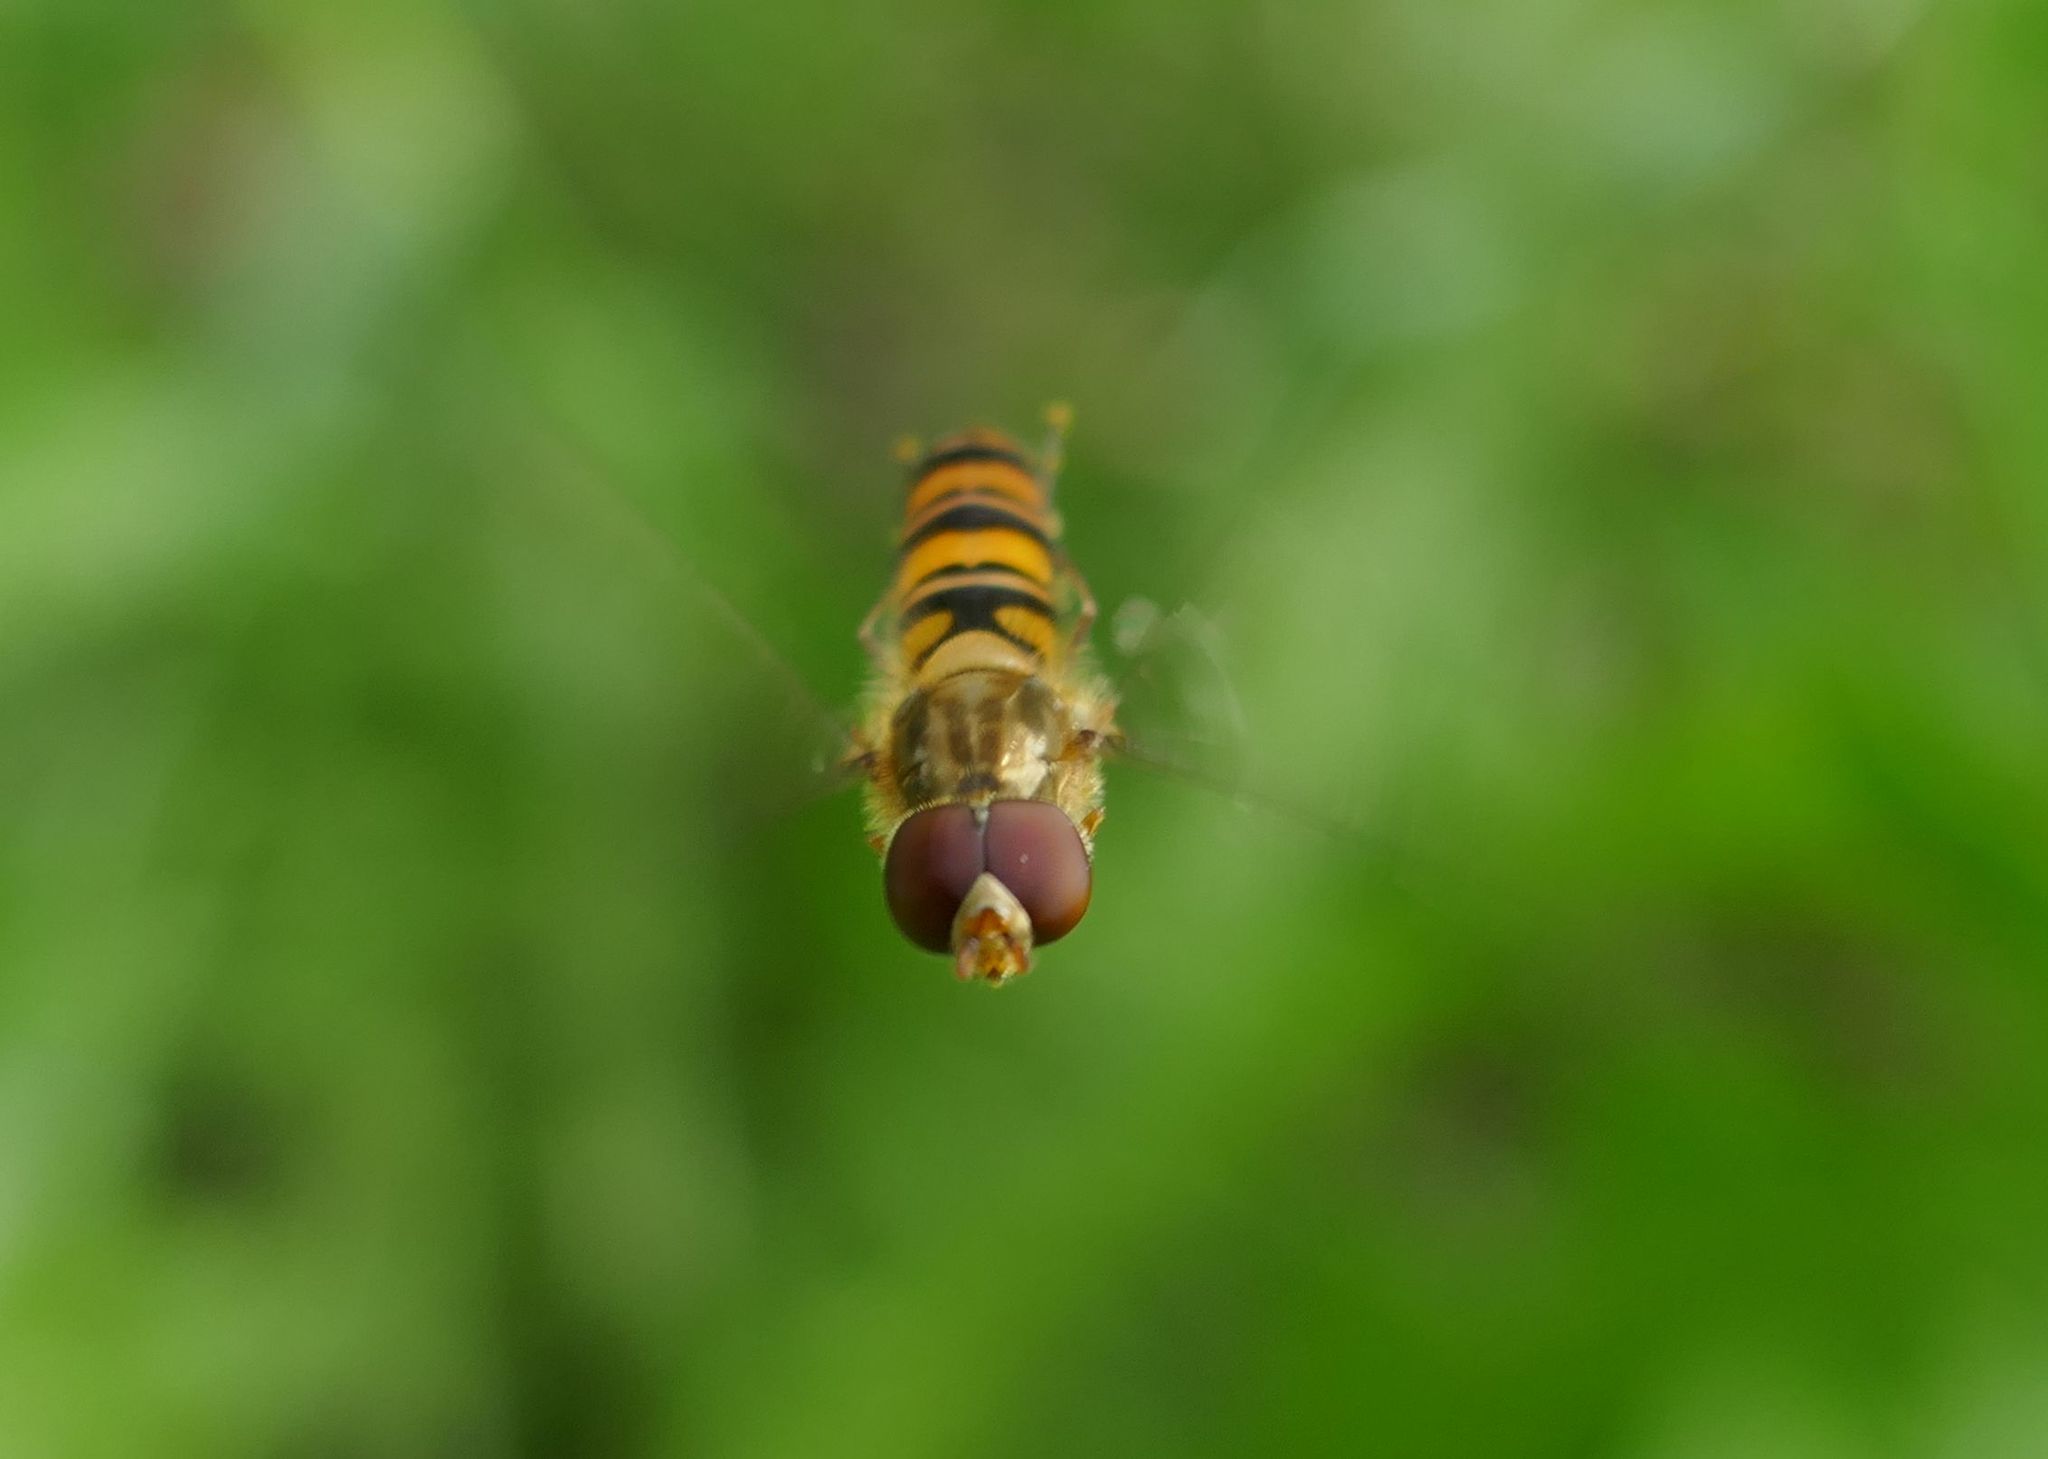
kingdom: Animalia
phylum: Arthropoda
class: Insecta
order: Diptera
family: Syrphidae
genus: Episyrphus
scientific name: Episyrphus balteatus
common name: Marmalade hoverfly
